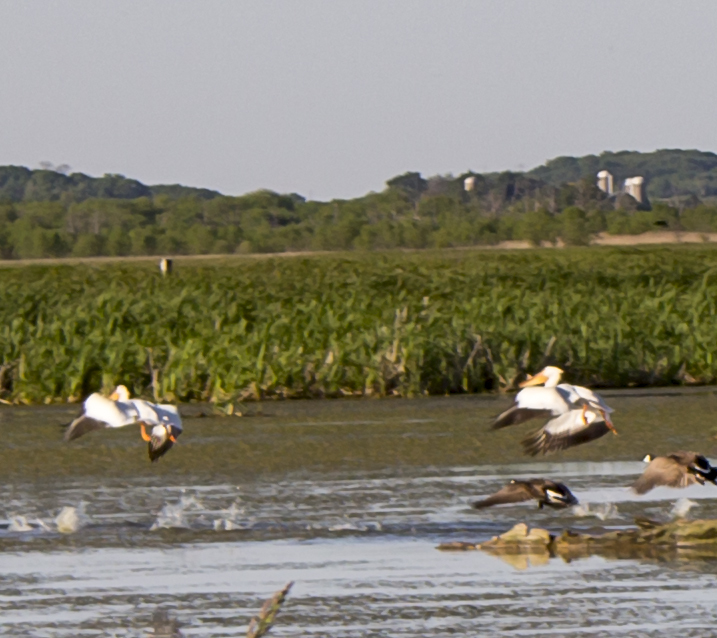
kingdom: Animalia
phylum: Chordata
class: Aves
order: Pelecaniformes
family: Pelecanidae
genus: Pelecanus
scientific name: Pelecanus erythrorhynchos
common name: American white pelican
